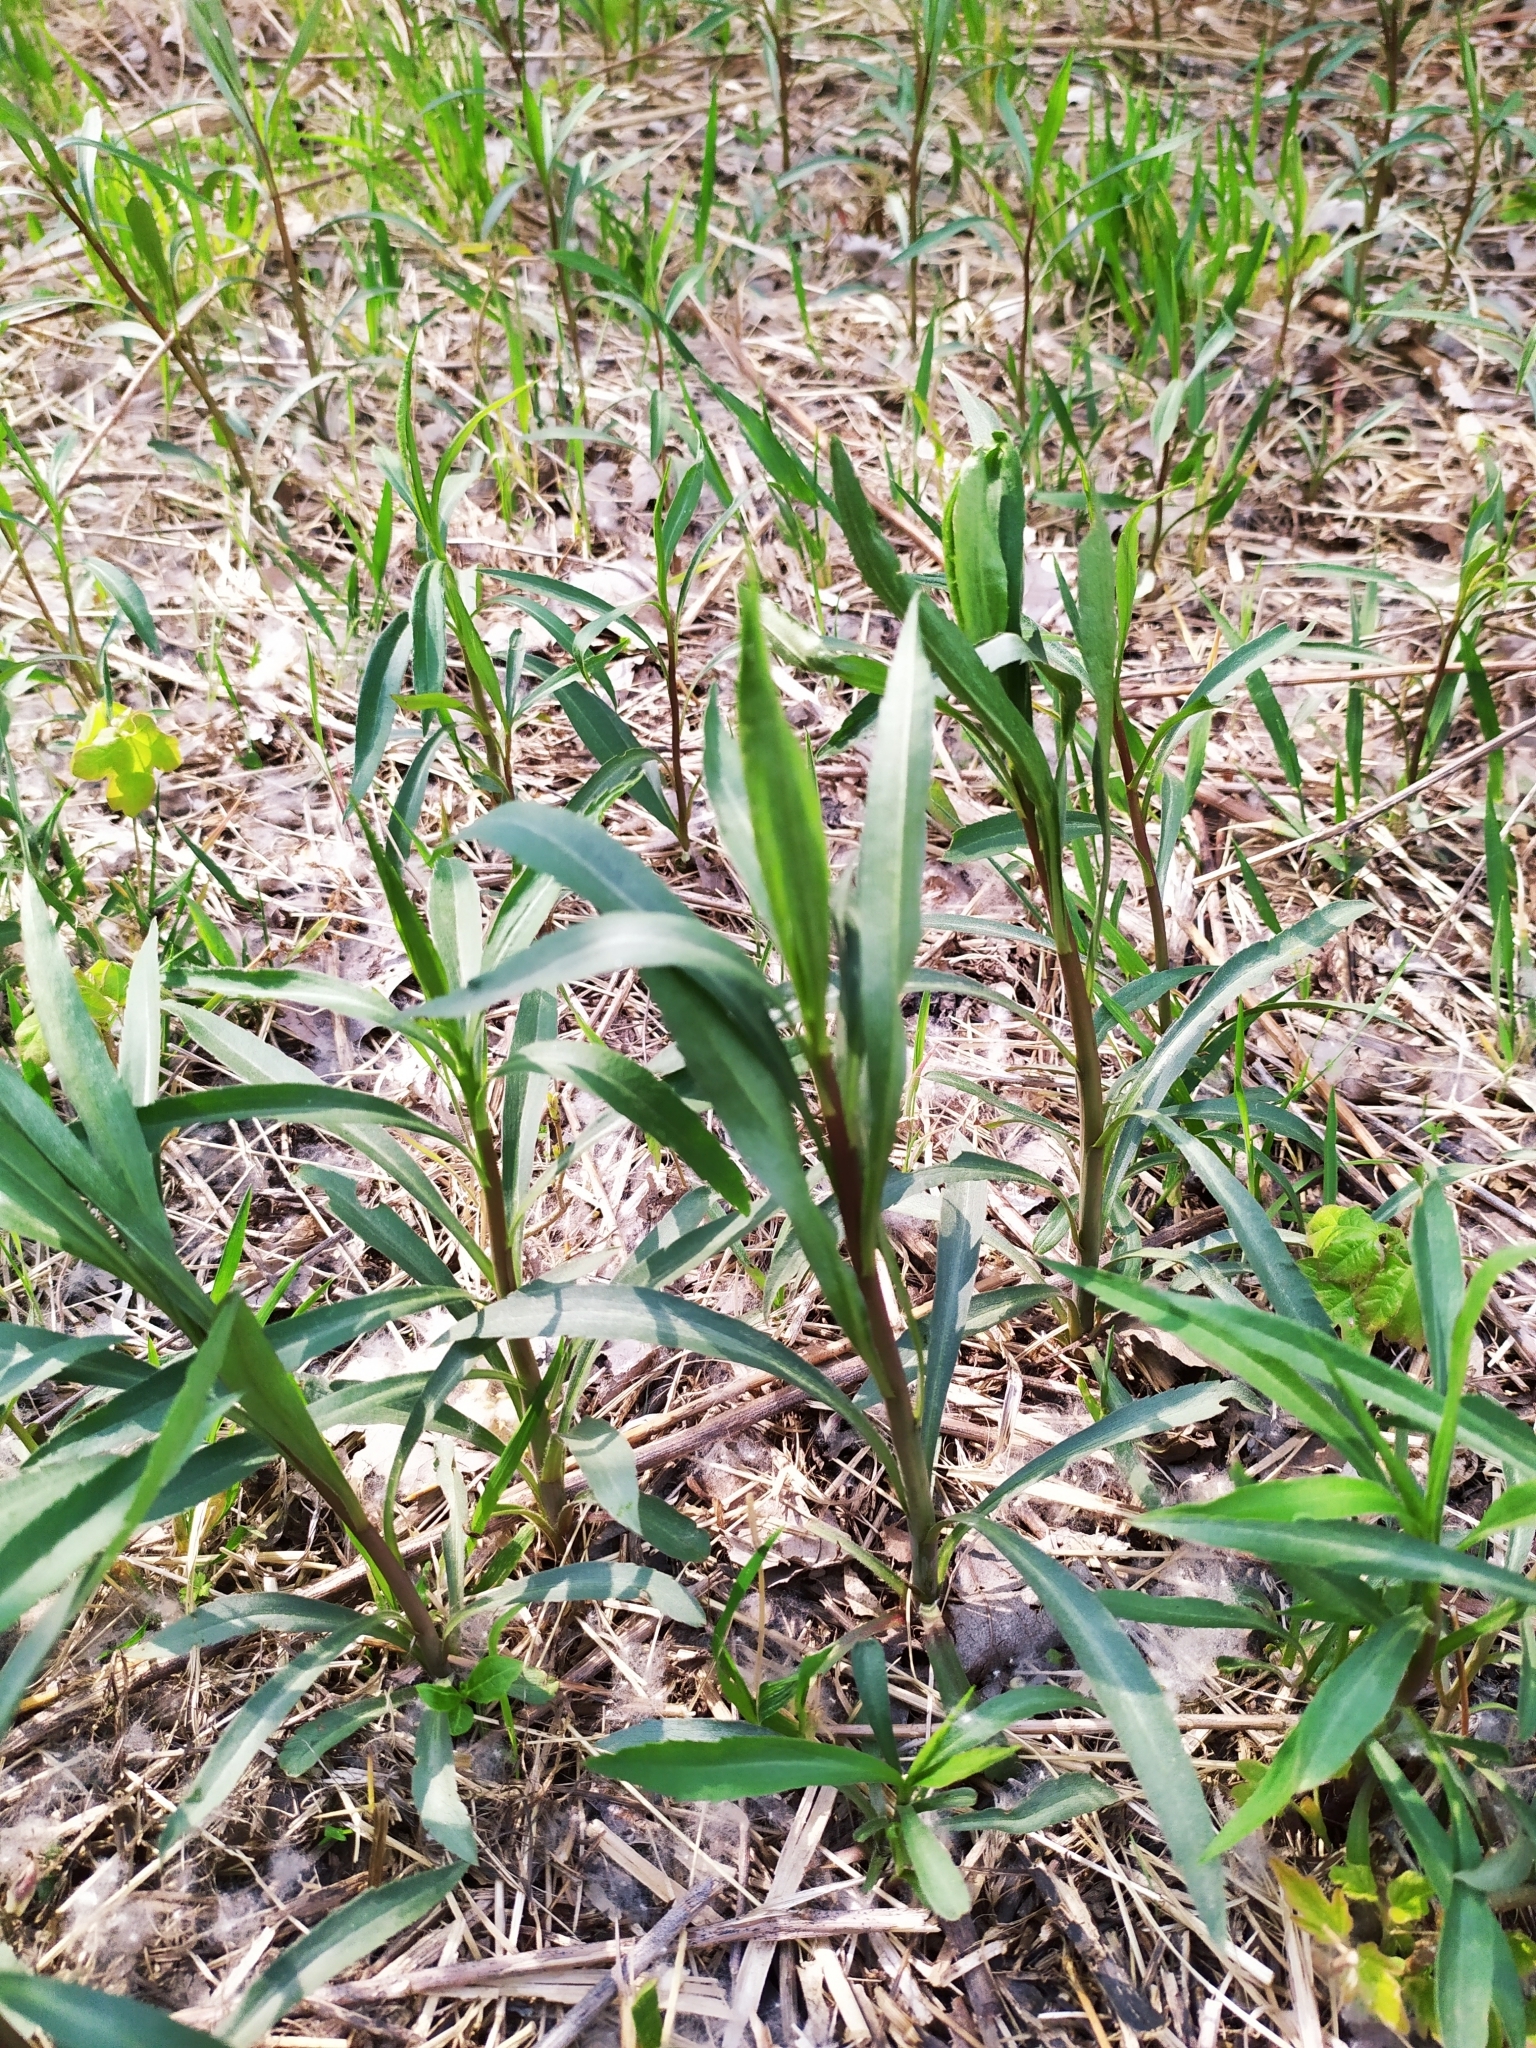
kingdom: Plantae
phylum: Tracheophyta
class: Magnoliopsida
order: Asterales
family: Asteraceae
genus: Solidago
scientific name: Solidago gigantea
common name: Giant goldenrod
